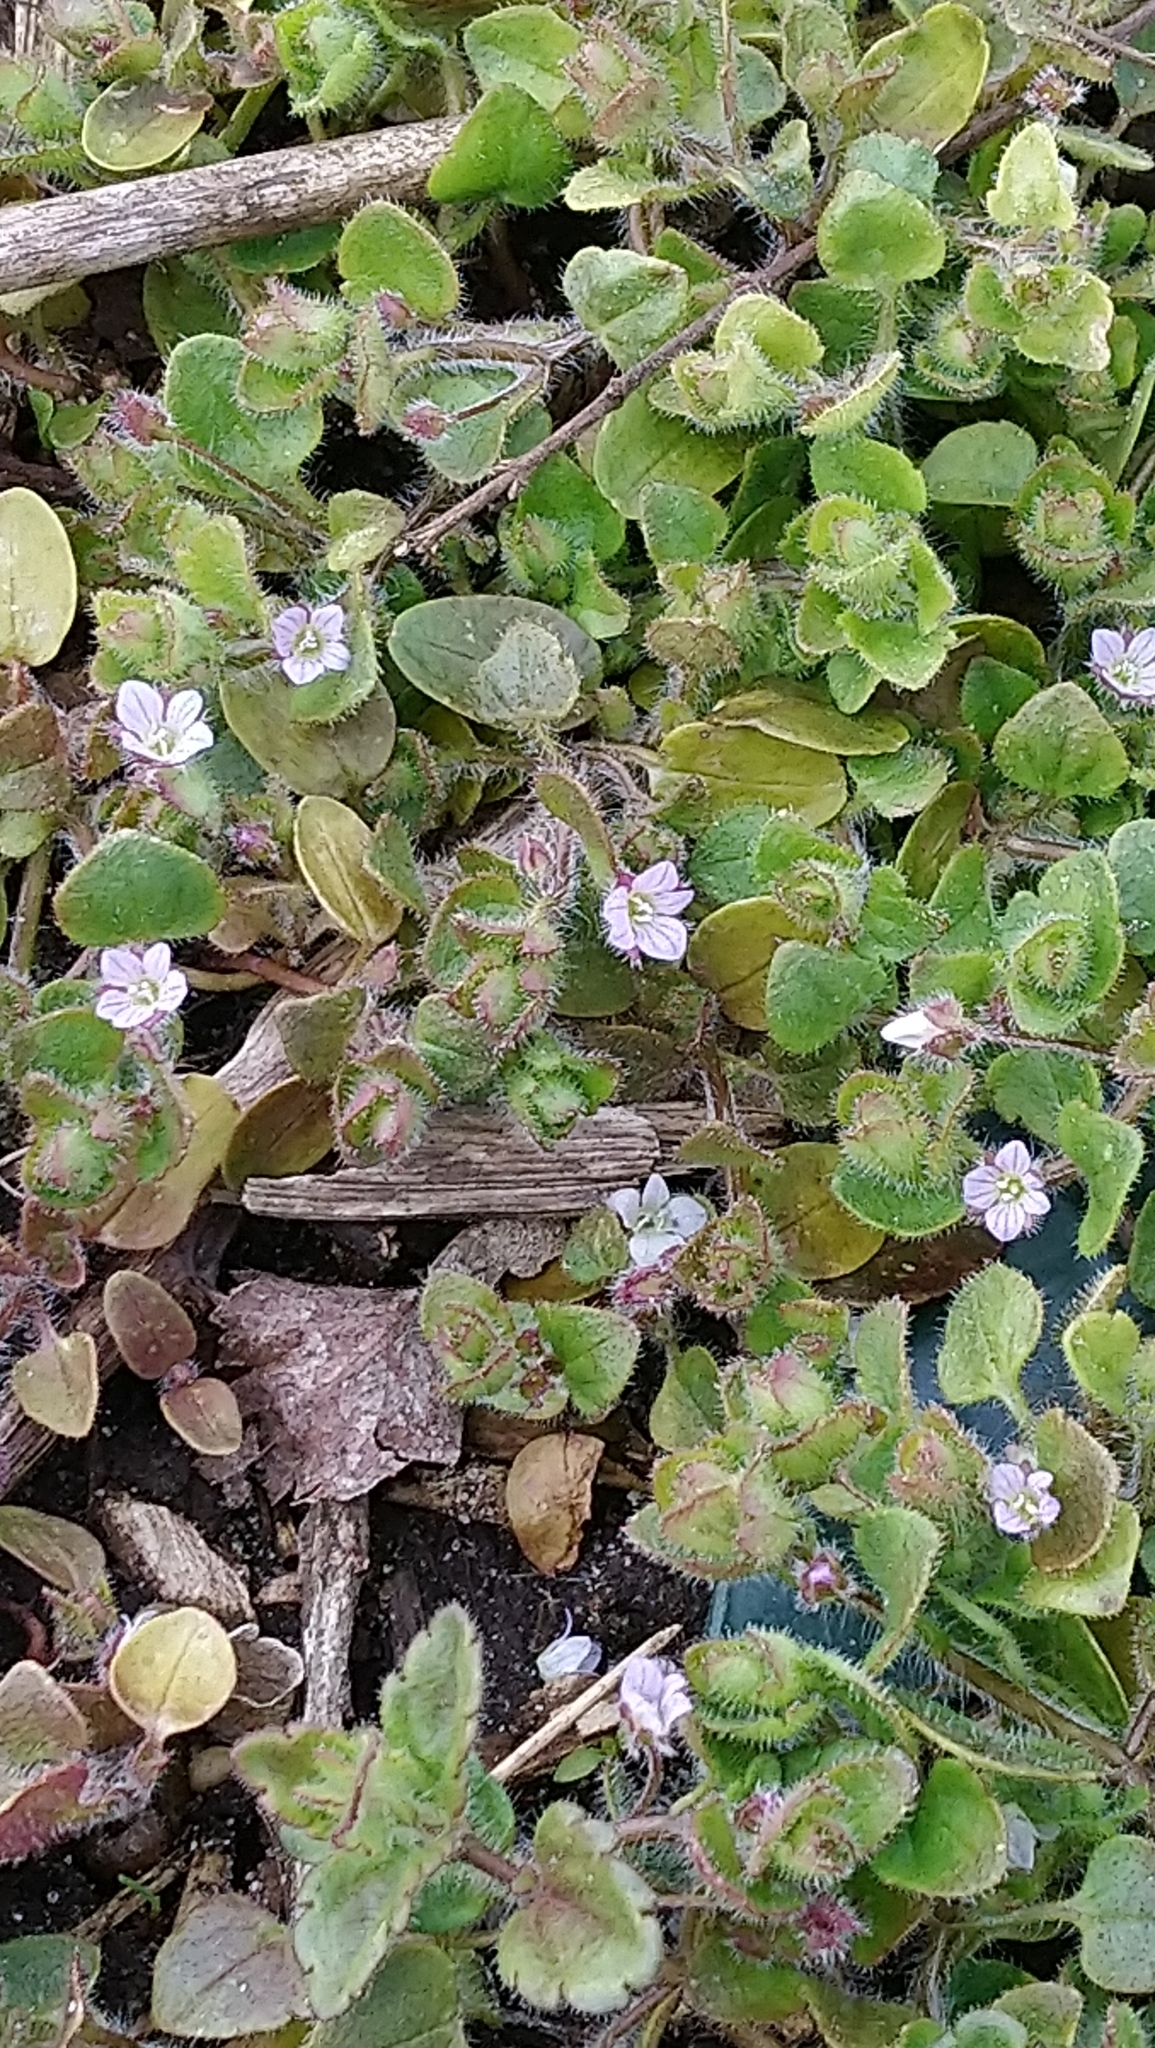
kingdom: Plantae
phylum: Tracheophyta
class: Magnoliopsida
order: Lamiales
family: Plantaginaceae
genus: Veronica
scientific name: Veronica sublobata
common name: False ivy-leaved speedwell
